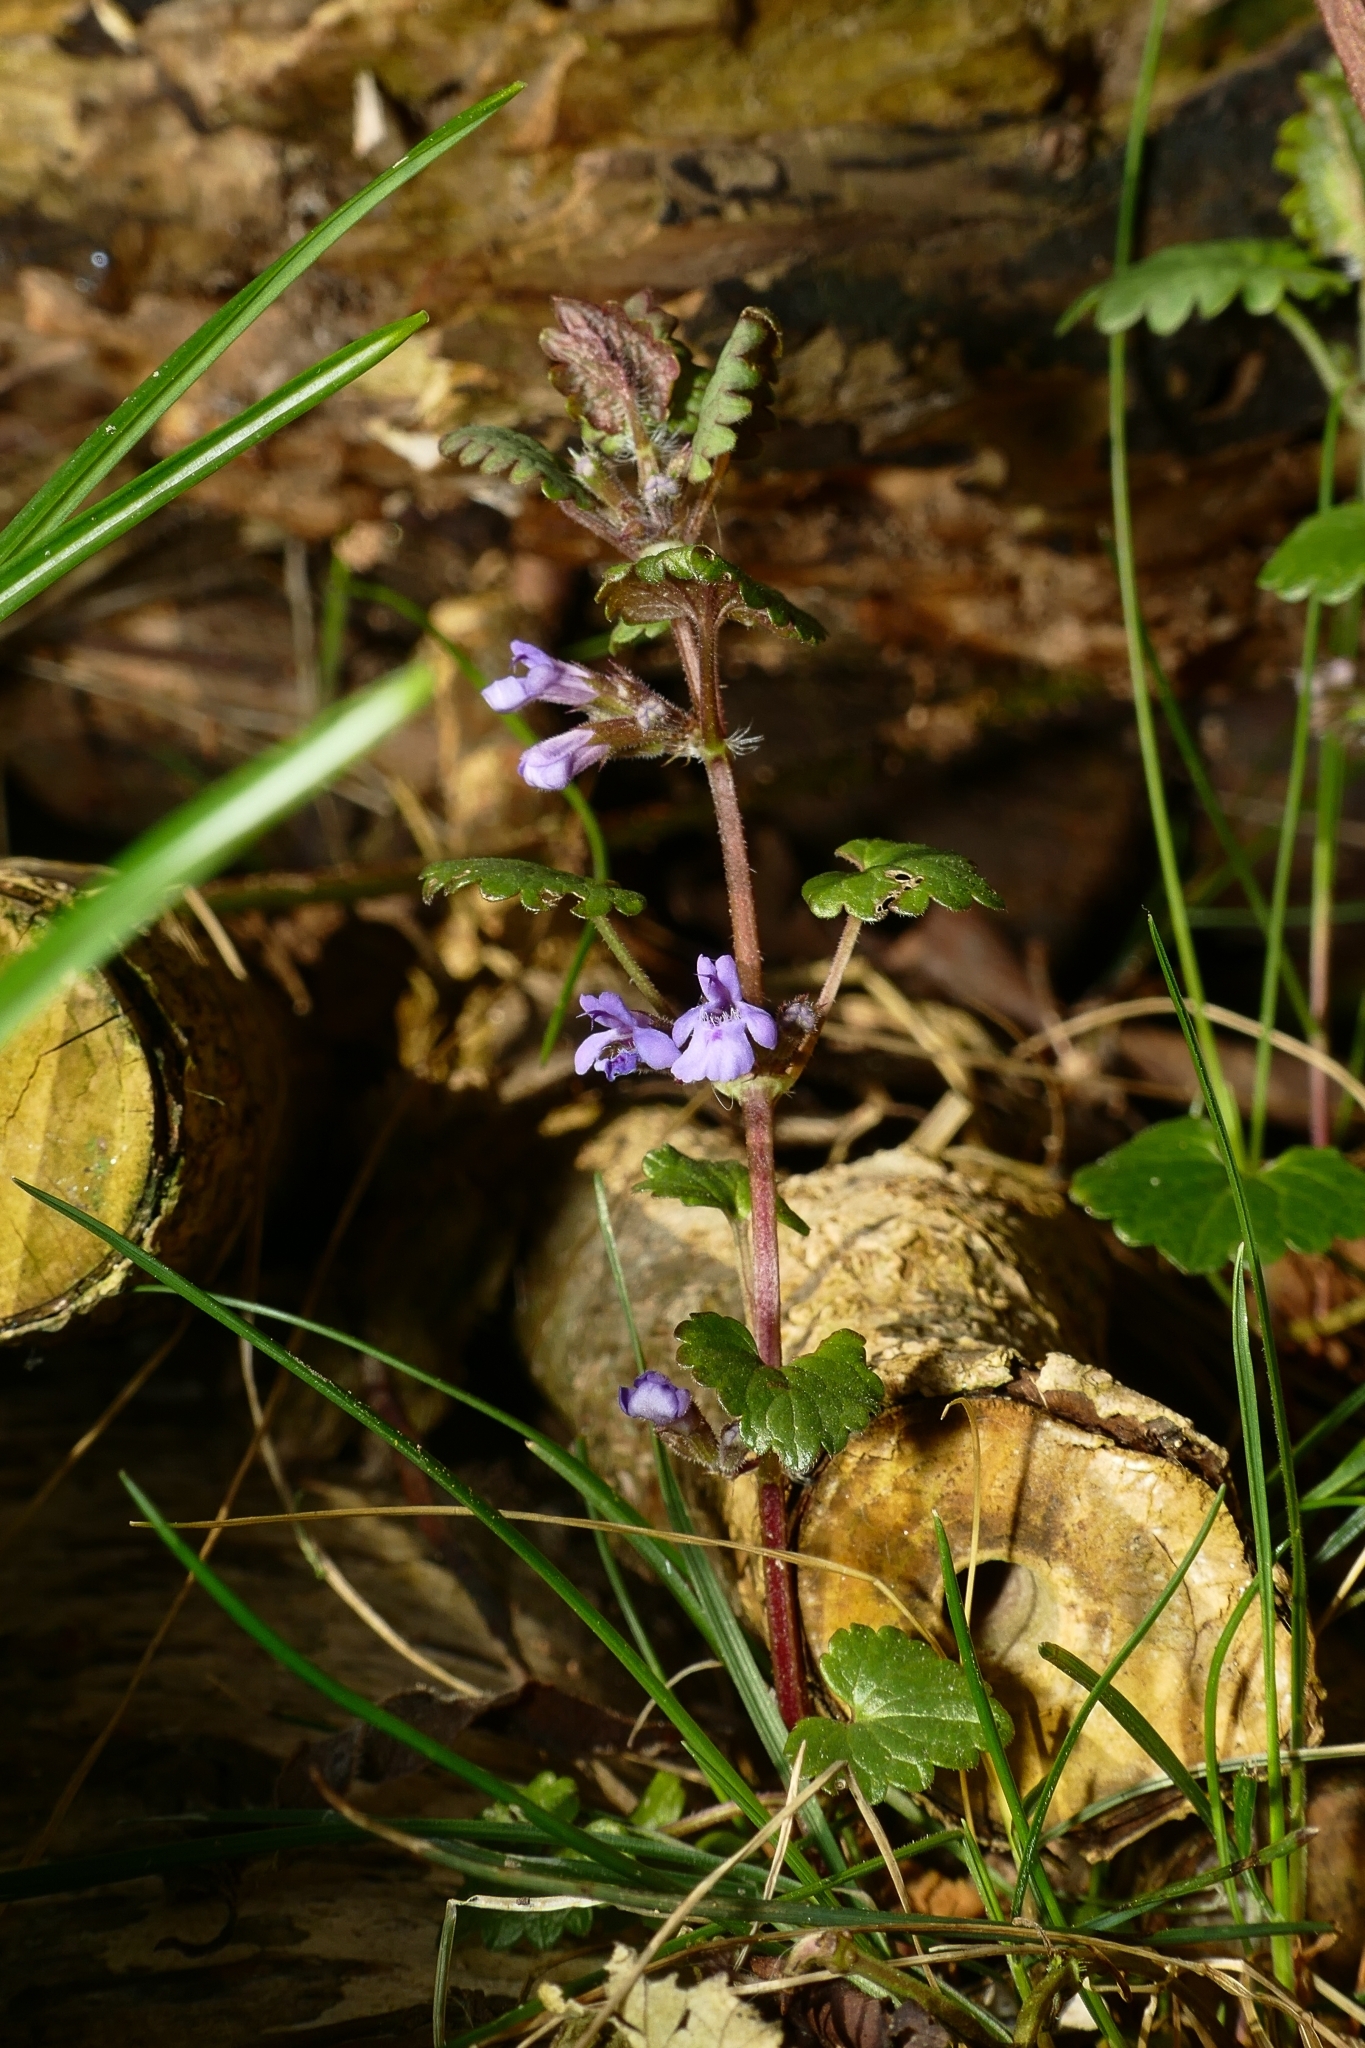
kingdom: Plantae
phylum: Tracheophyta
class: Magnoliopsida
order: Lamiales
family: Lamiaceae
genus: Glechoma
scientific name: Glechoma hederacea
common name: Ground ivy
